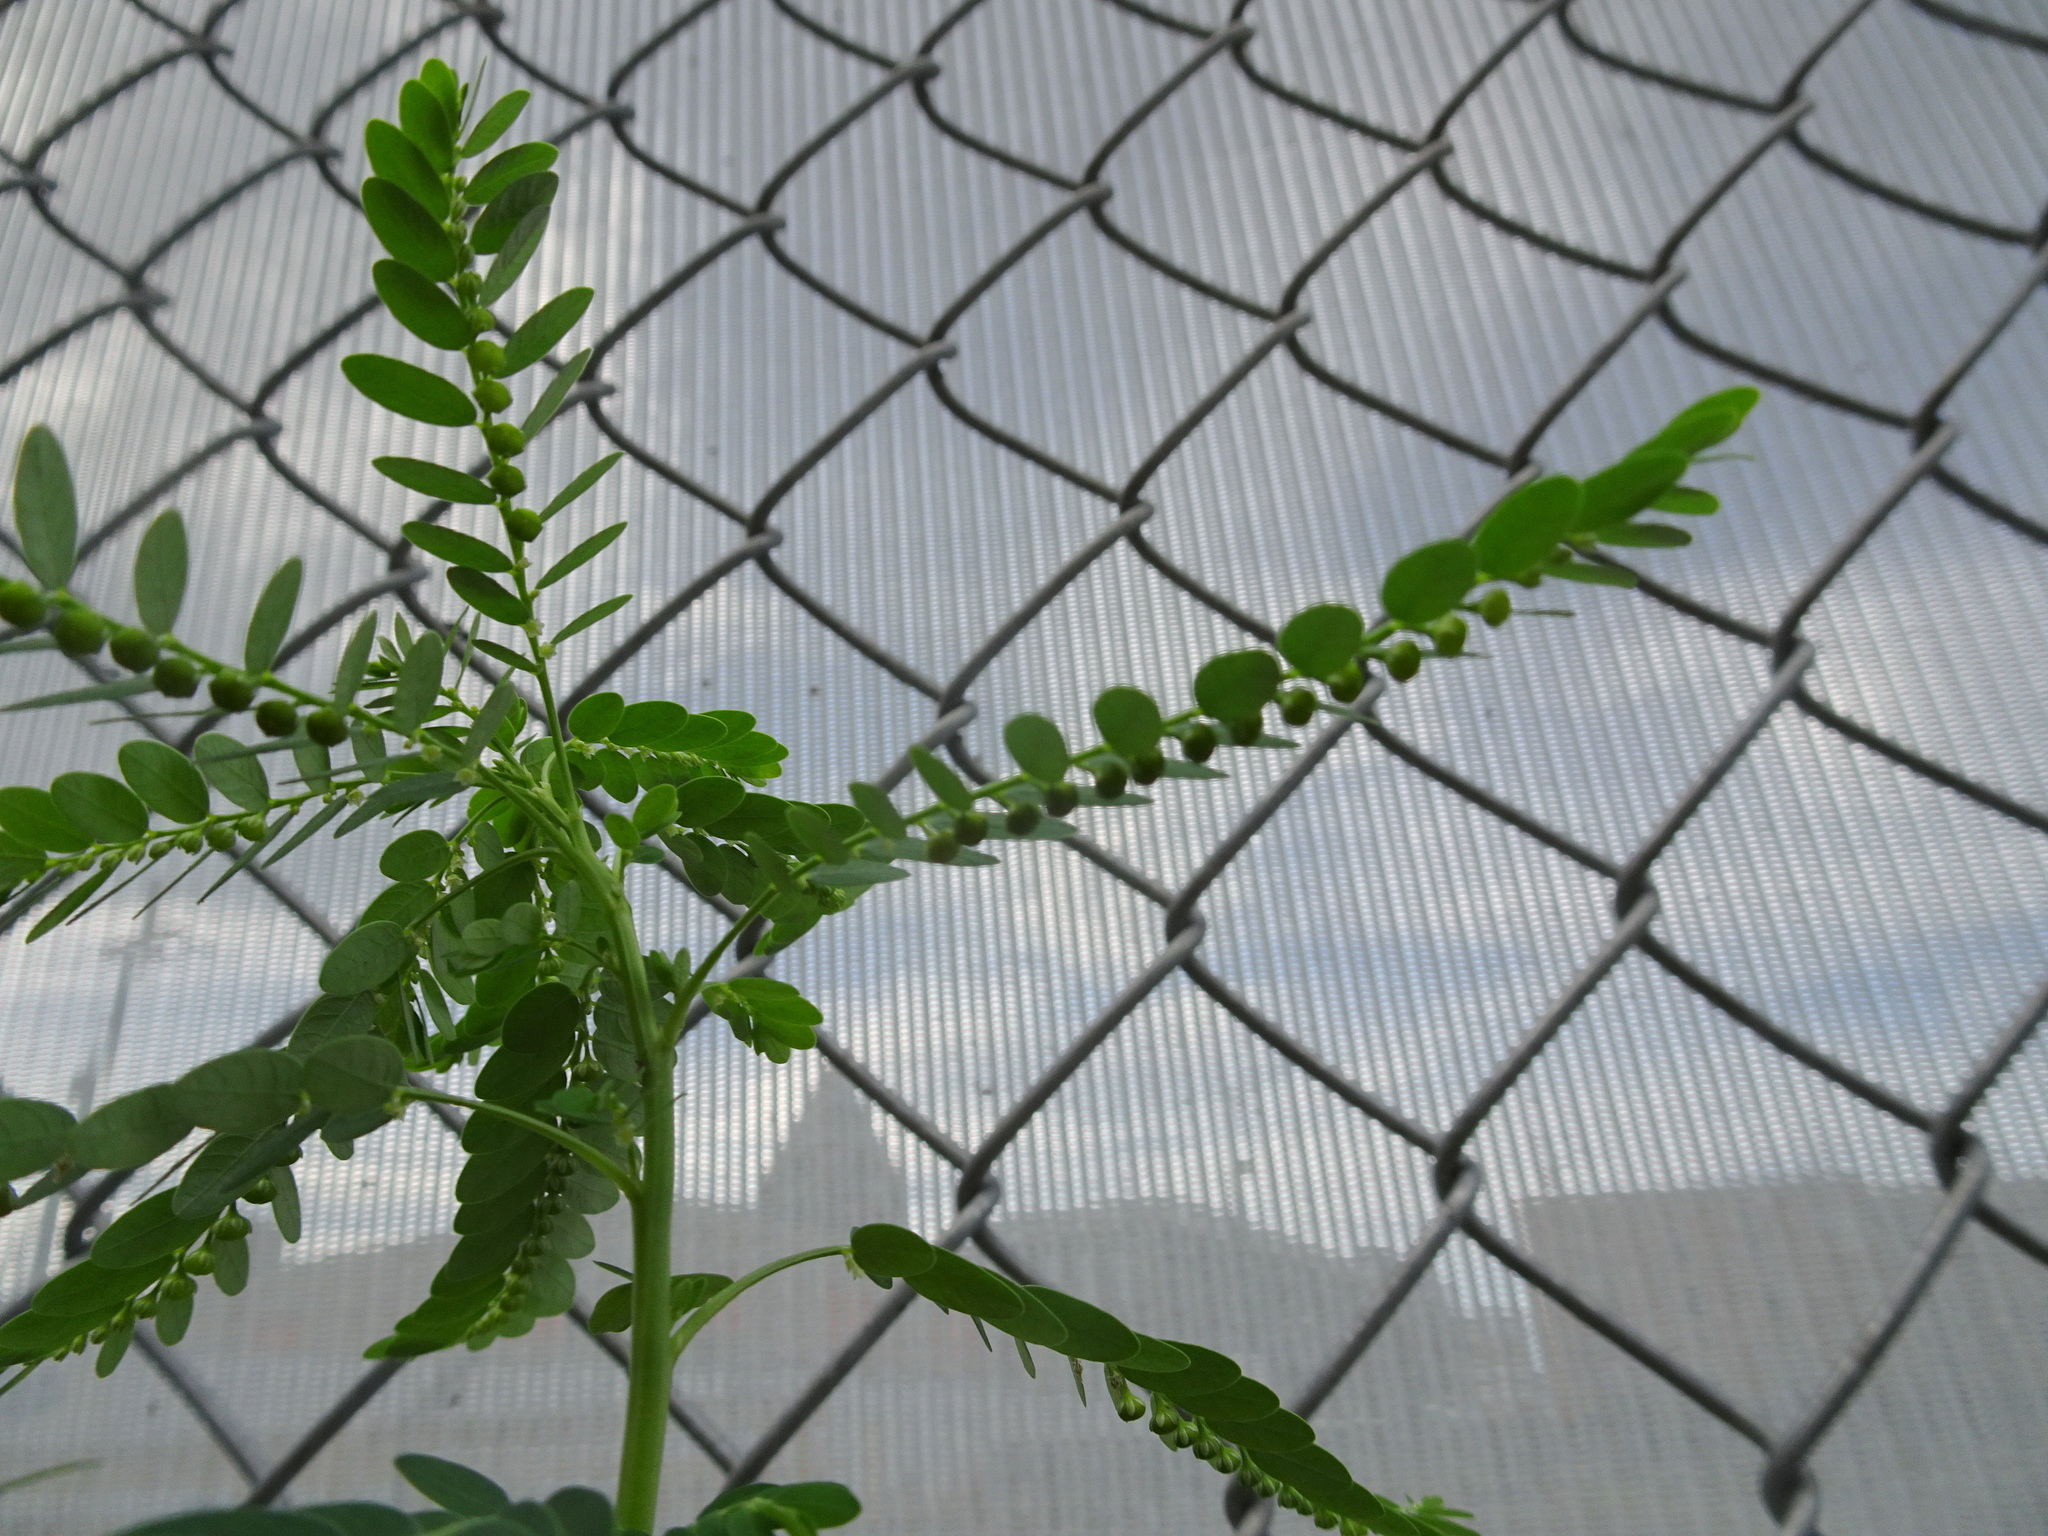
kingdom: Plantae
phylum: Tracheophyta
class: Magnoliopsida
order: Malpighiales
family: Phyllanthaceae
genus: Phyllanthus
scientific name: Phyllanthus fraternus
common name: Gulf leaf-flower
